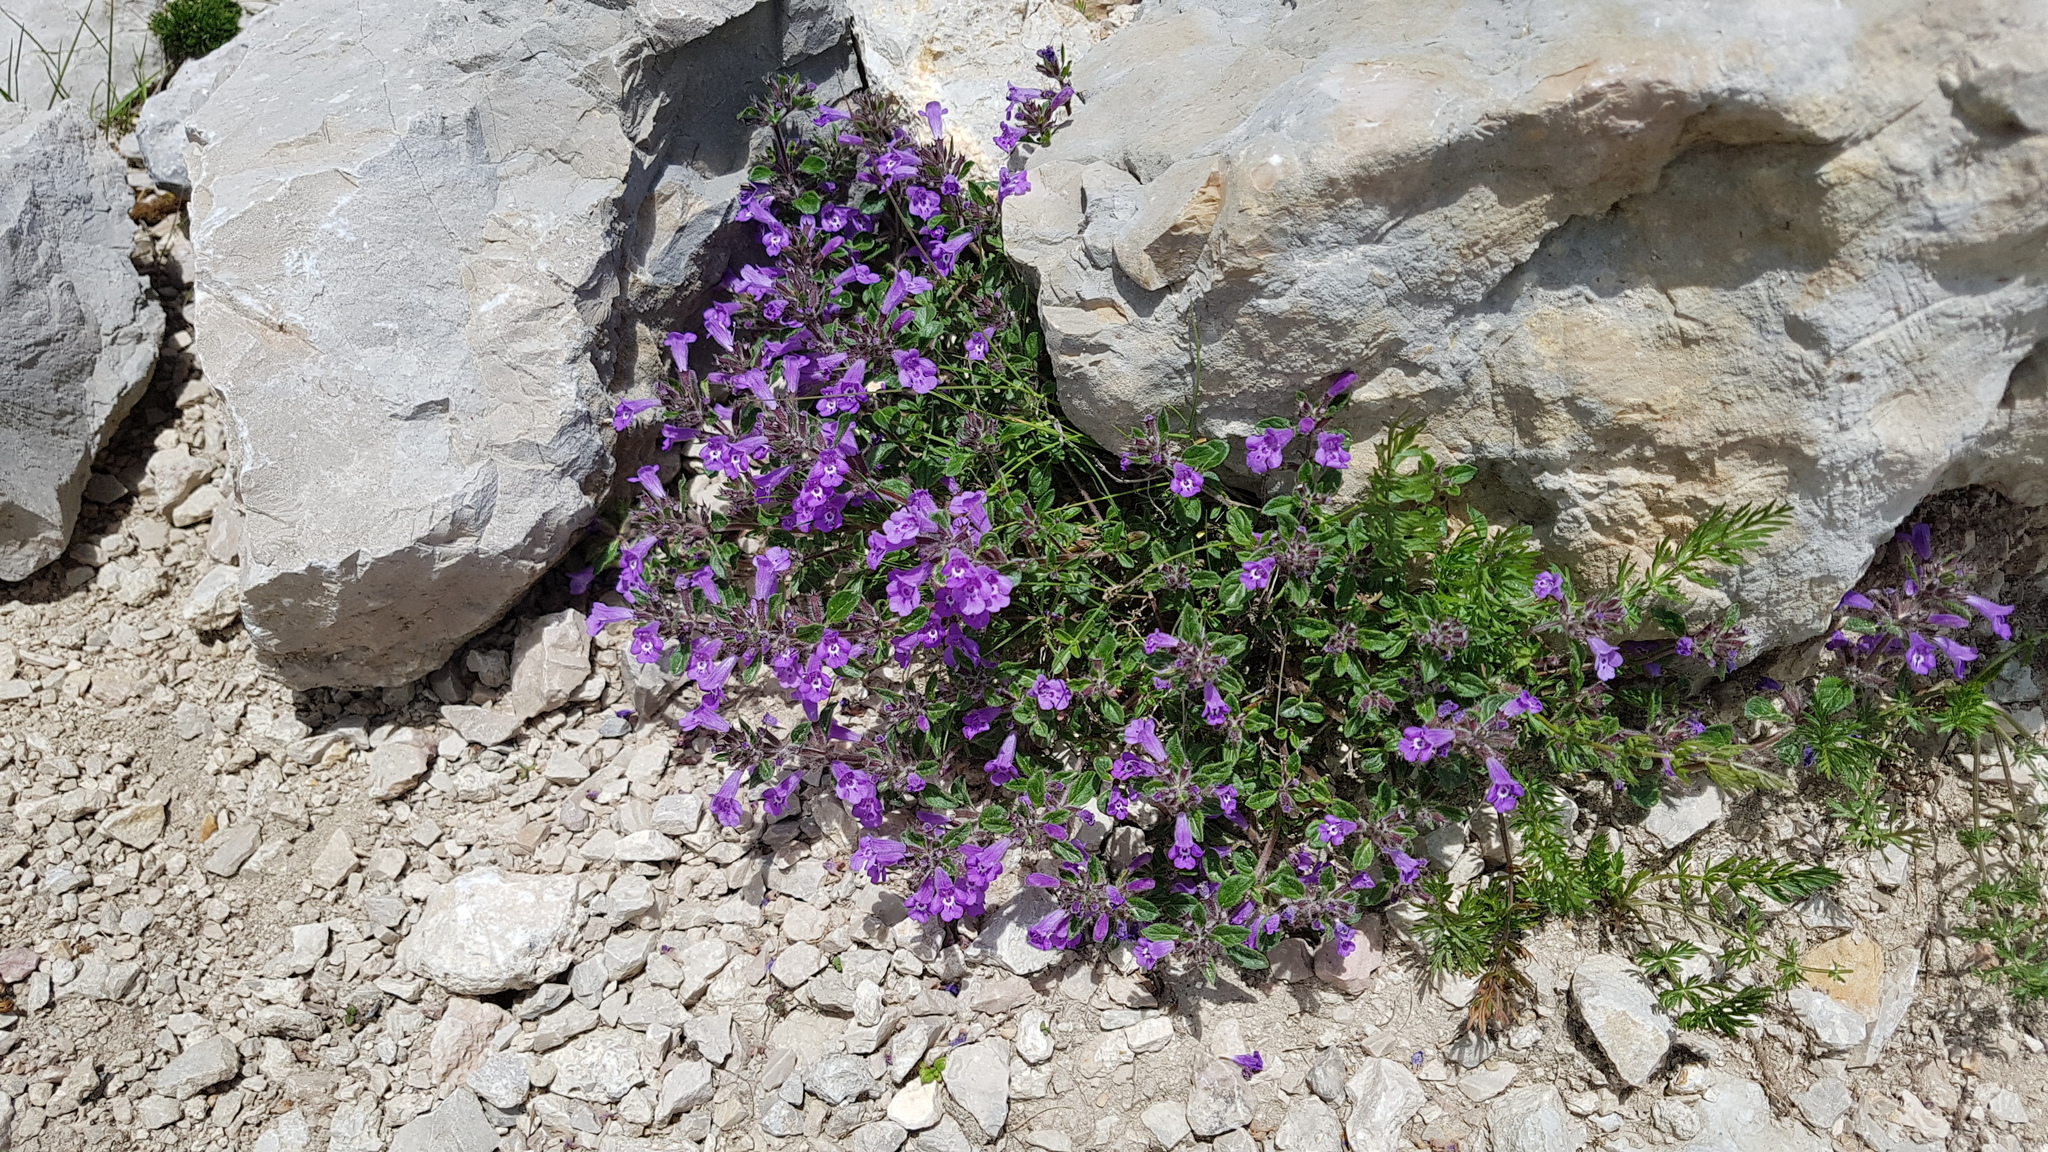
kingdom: Plantae
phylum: Tracheophyta
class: Magnoliopsida
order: Lamiales
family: Lamiaceae
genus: Clinopodium
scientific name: Clinopodium alpinum
